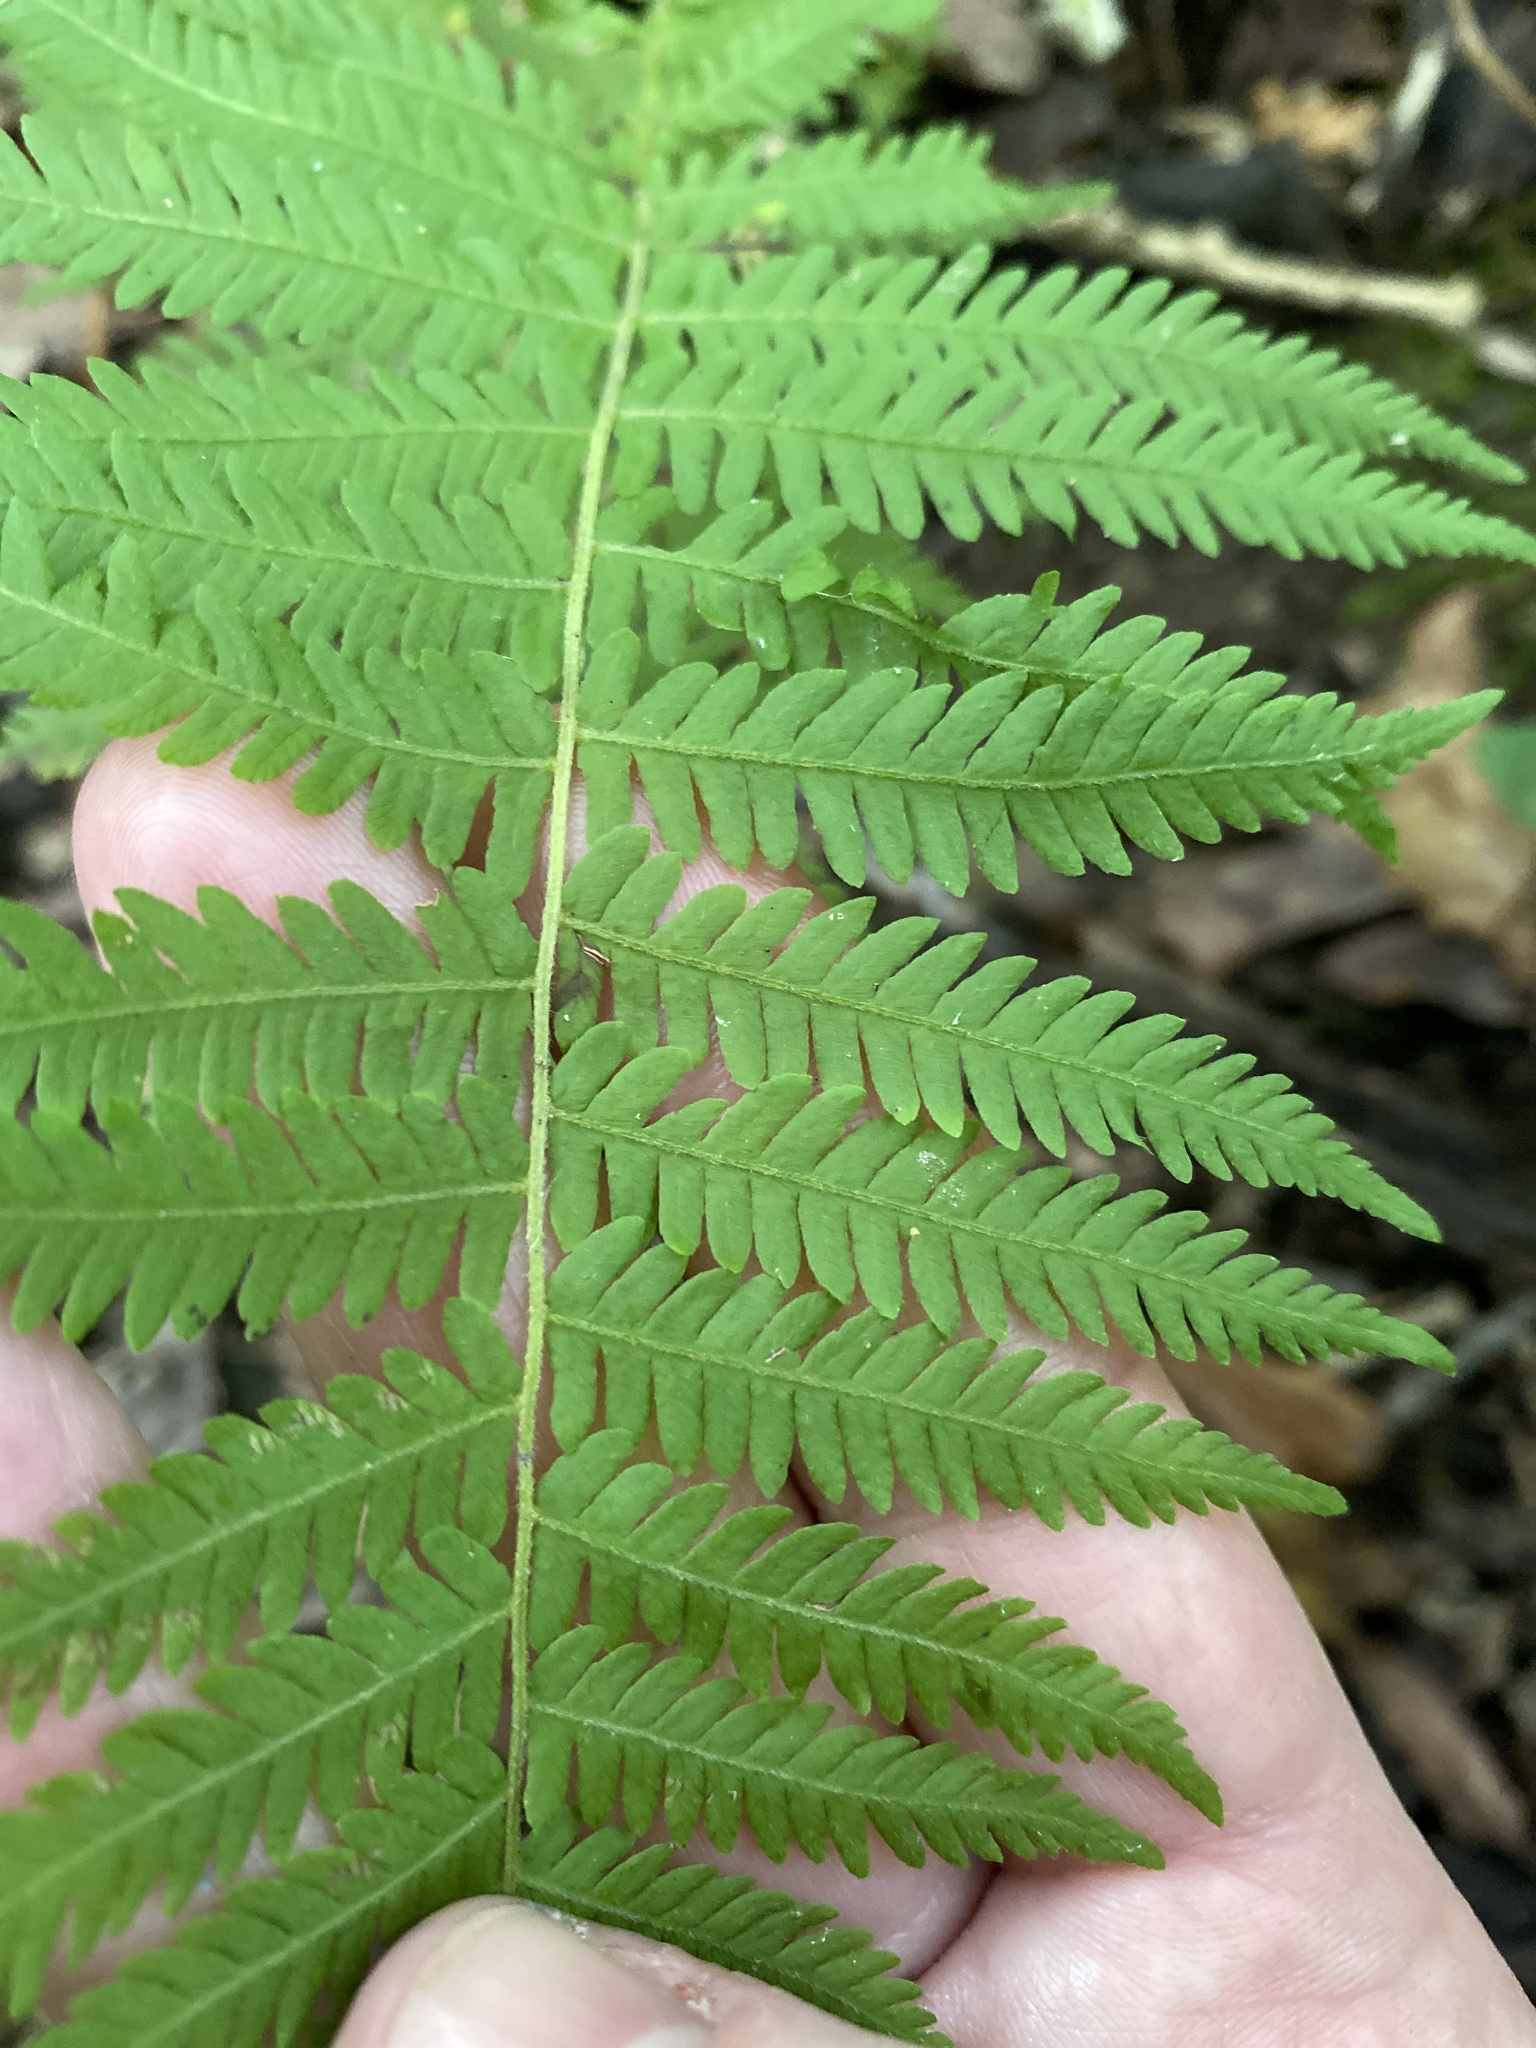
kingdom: Plantae
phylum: Tracheophyta
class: Polypodiopsida
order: Polypodiales
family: Thelypteridaceae
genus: Amauropelta
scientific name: Amauropelta noveboracensis
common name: New york fern
